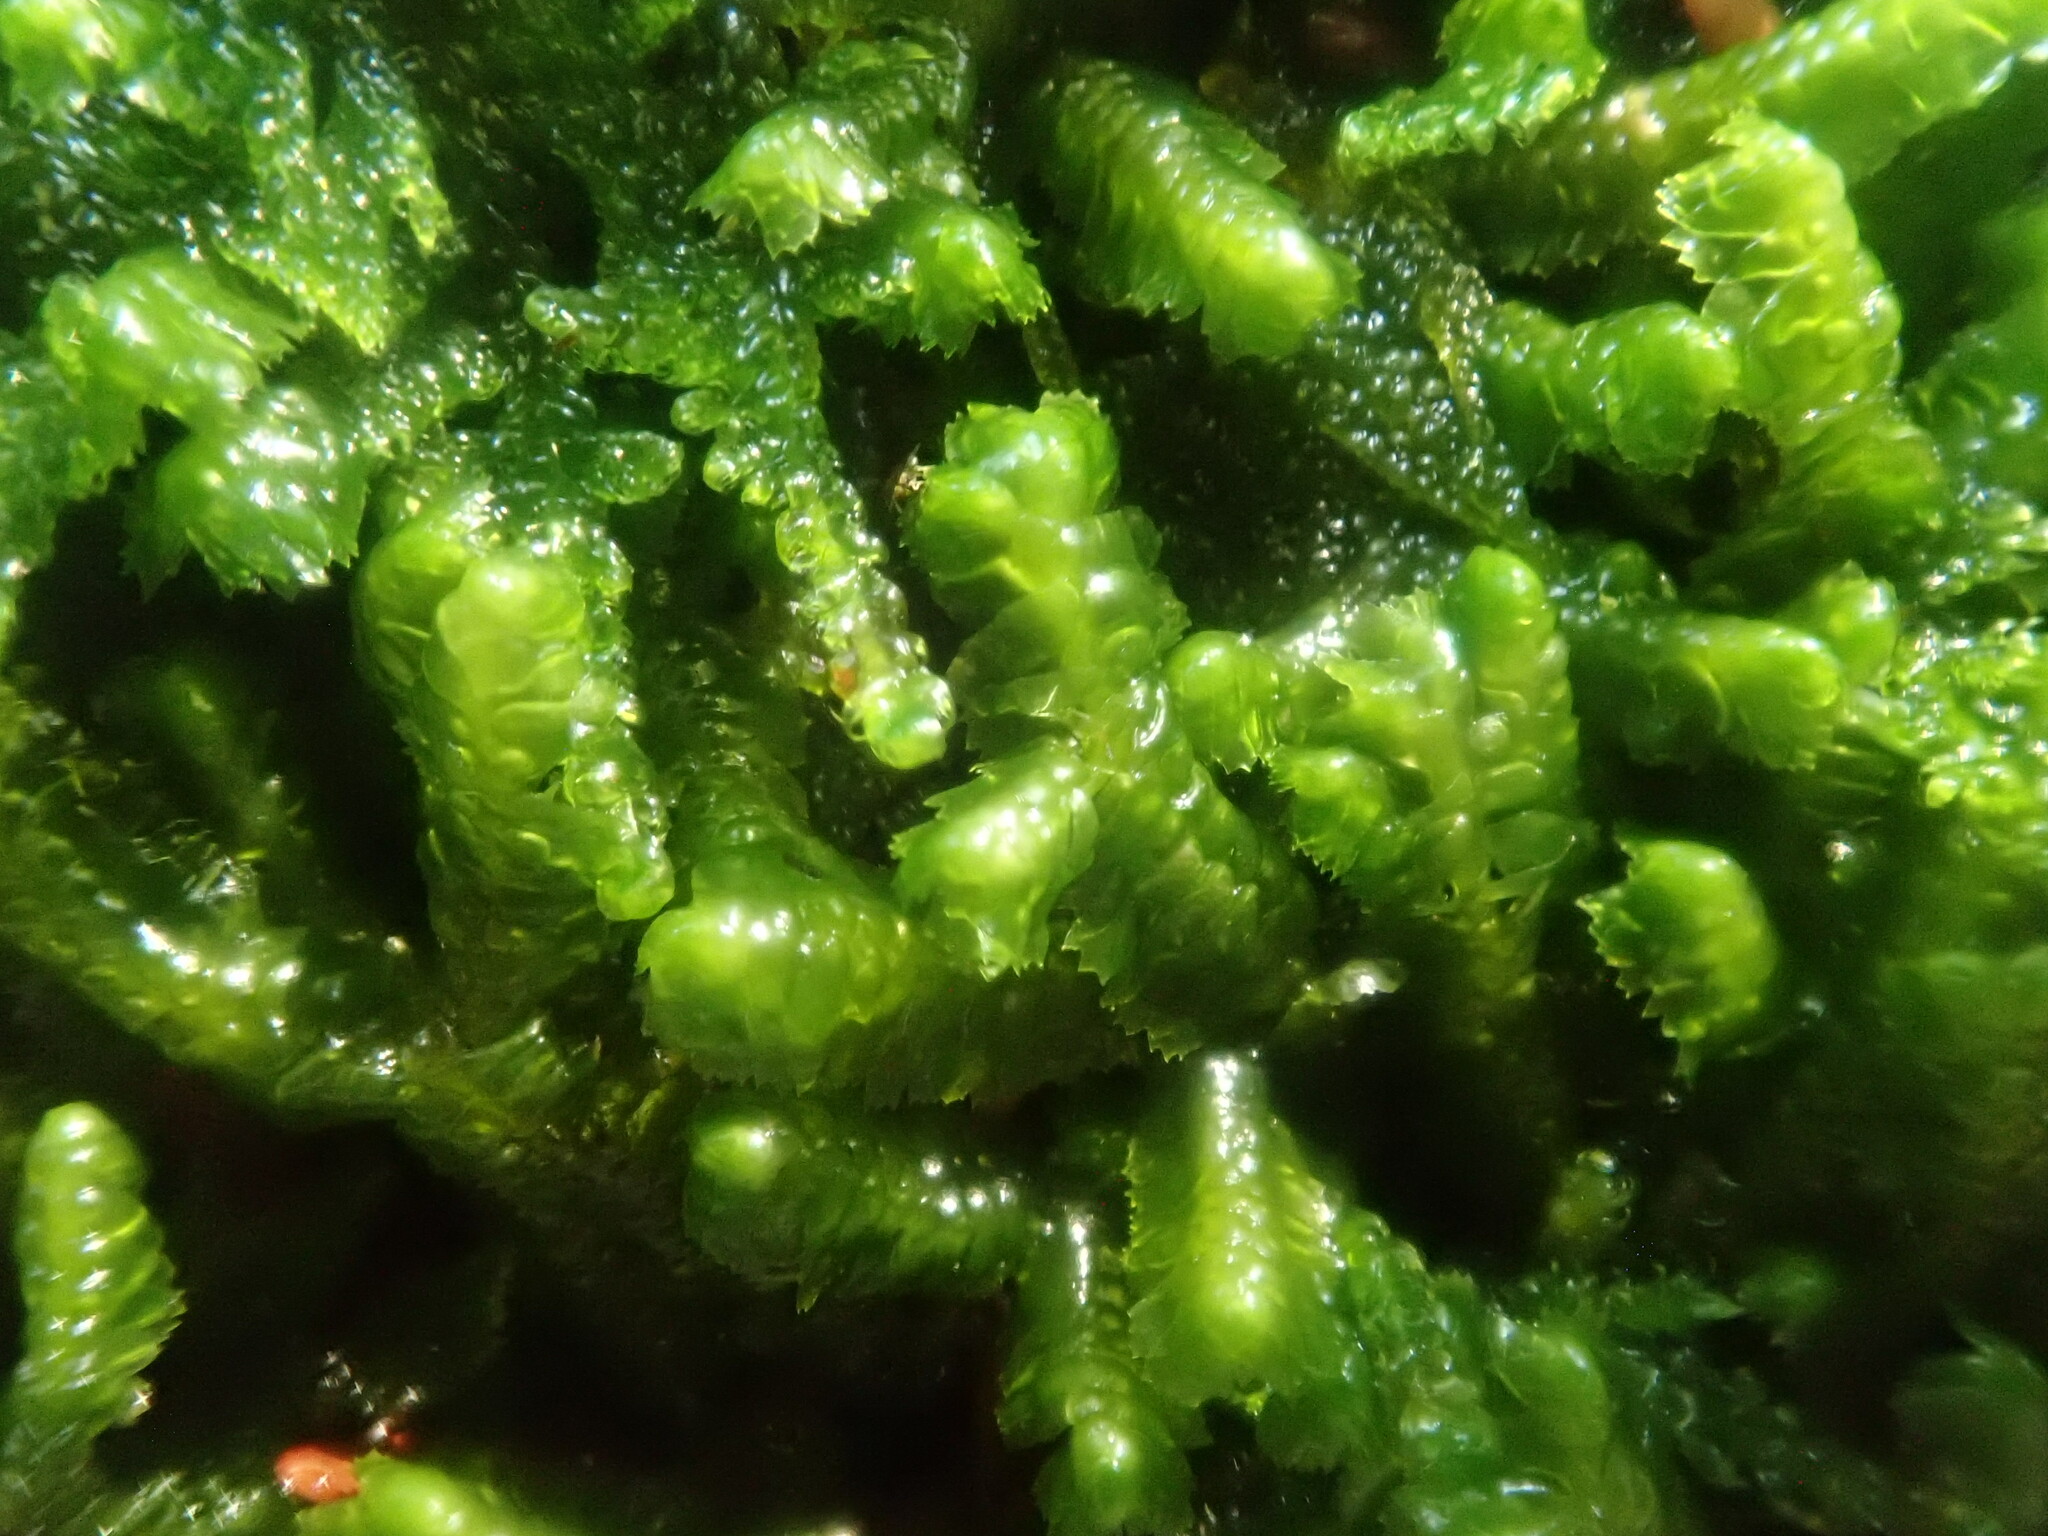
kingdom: Plantae
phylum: Marchantiophyta
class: Jungermanniopsida
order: Jungermanniales
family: Lepidoziaceae
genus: Bazzania
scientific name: Bazzania trilobata
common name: Three-lobed whipwort
